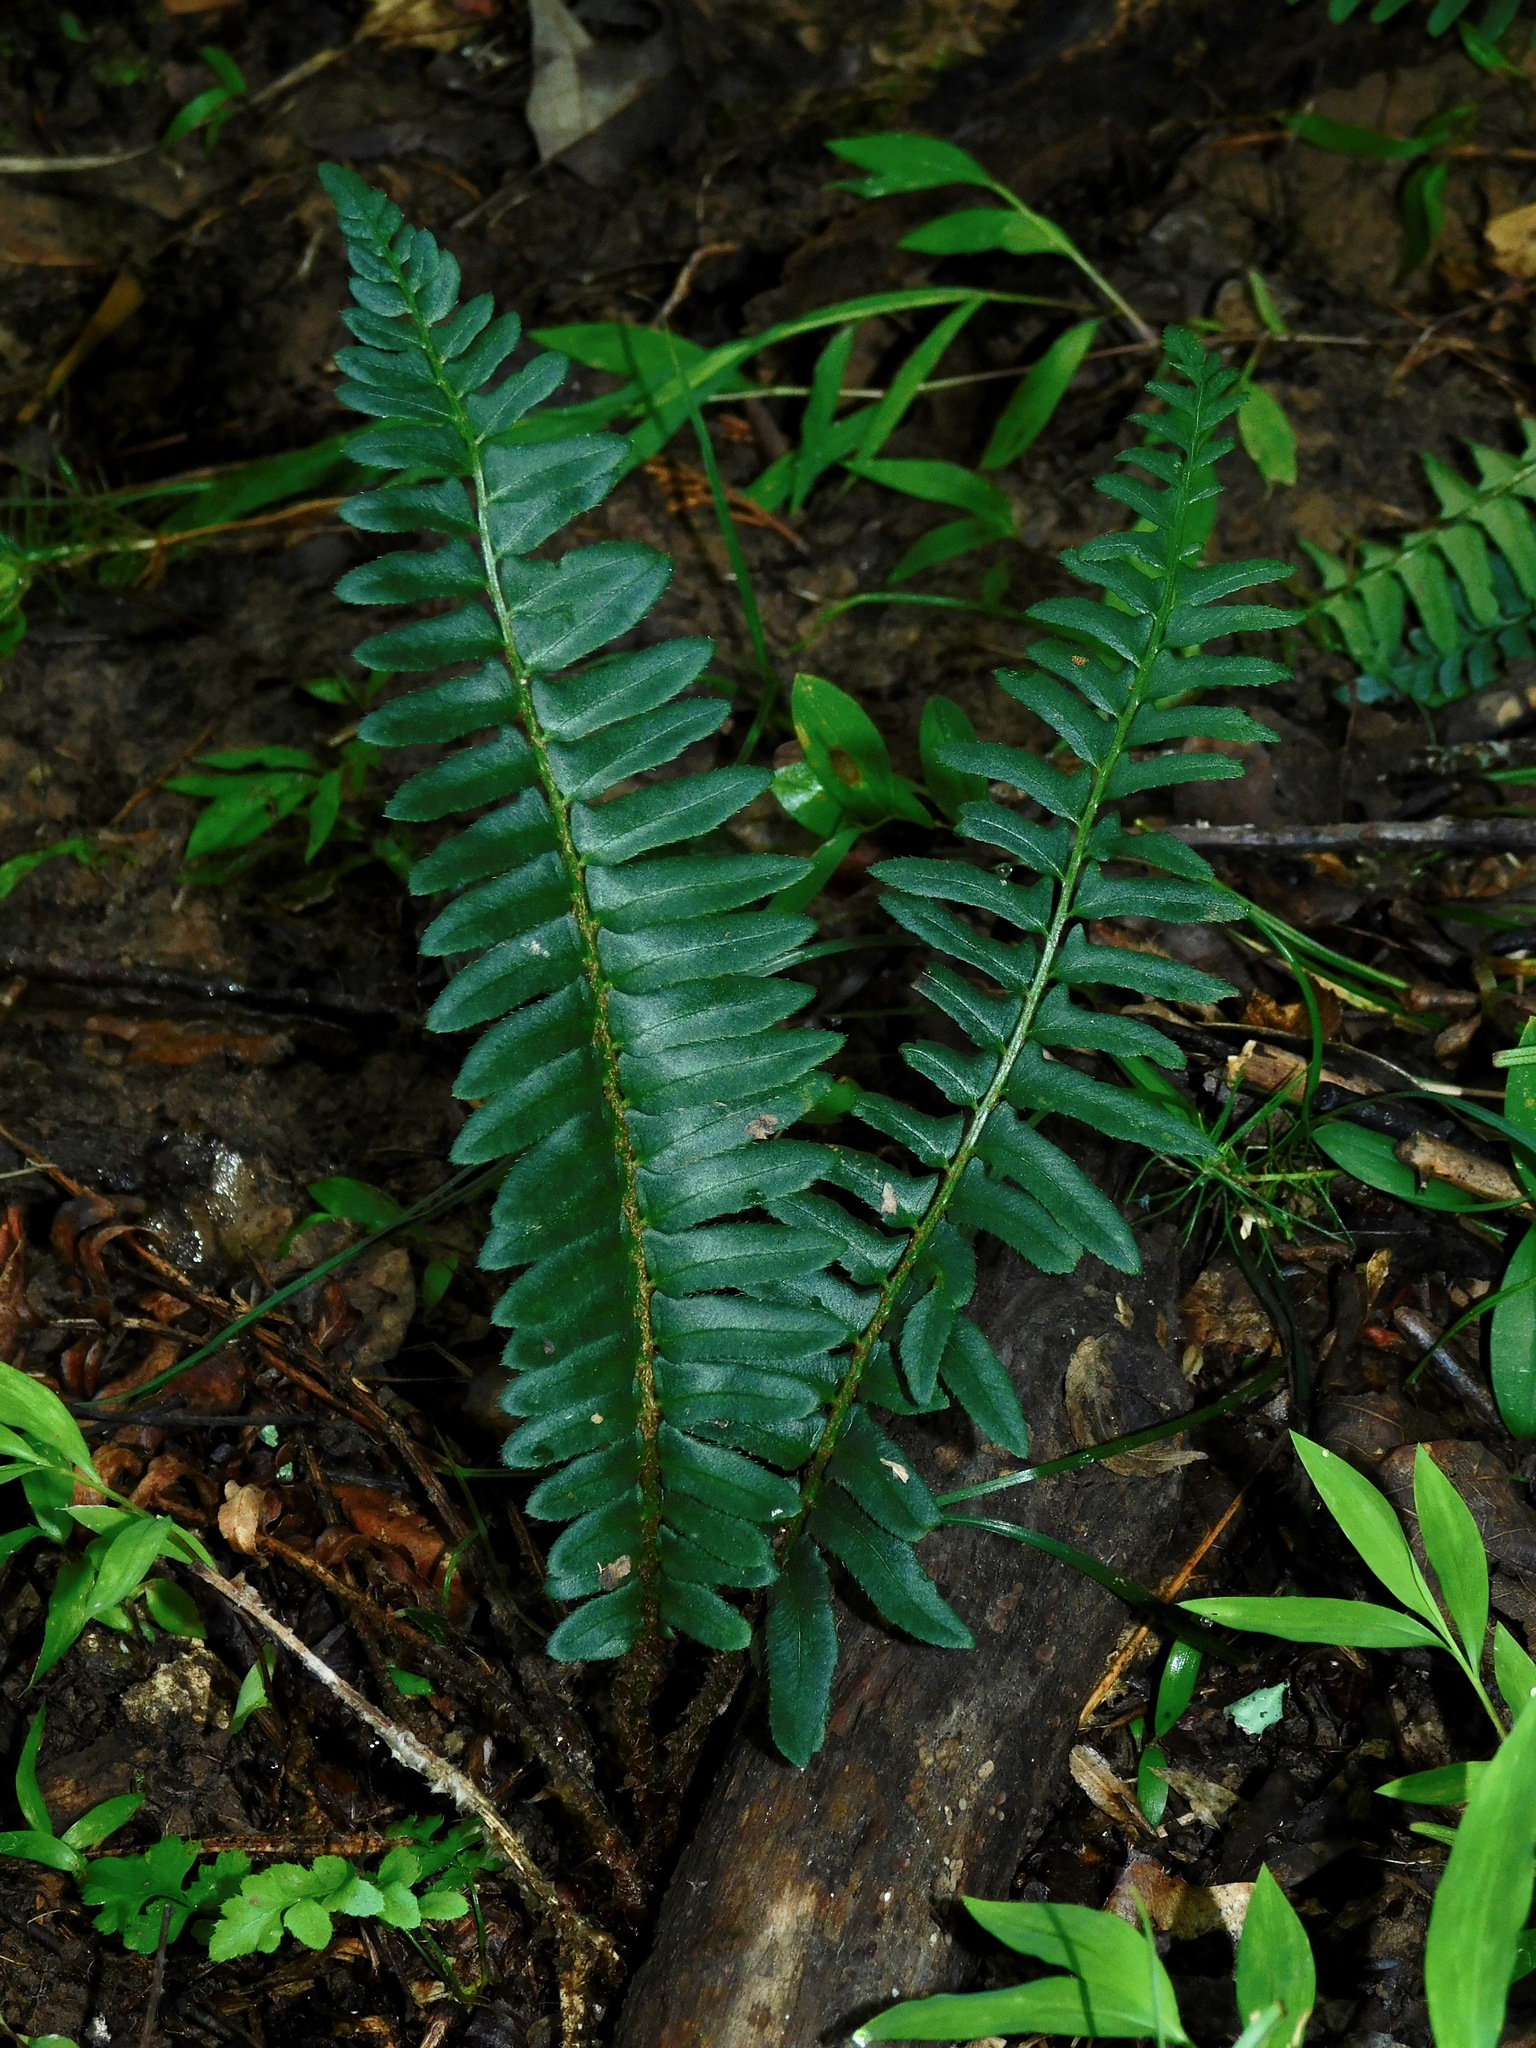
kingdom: Plantae
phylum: Tracheophyta
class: Polypodiopsida
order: Polypodiales
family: Dryopteridaceae
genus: Polystichum
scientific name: Polystichum acrostichoides
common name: Christmas fern
